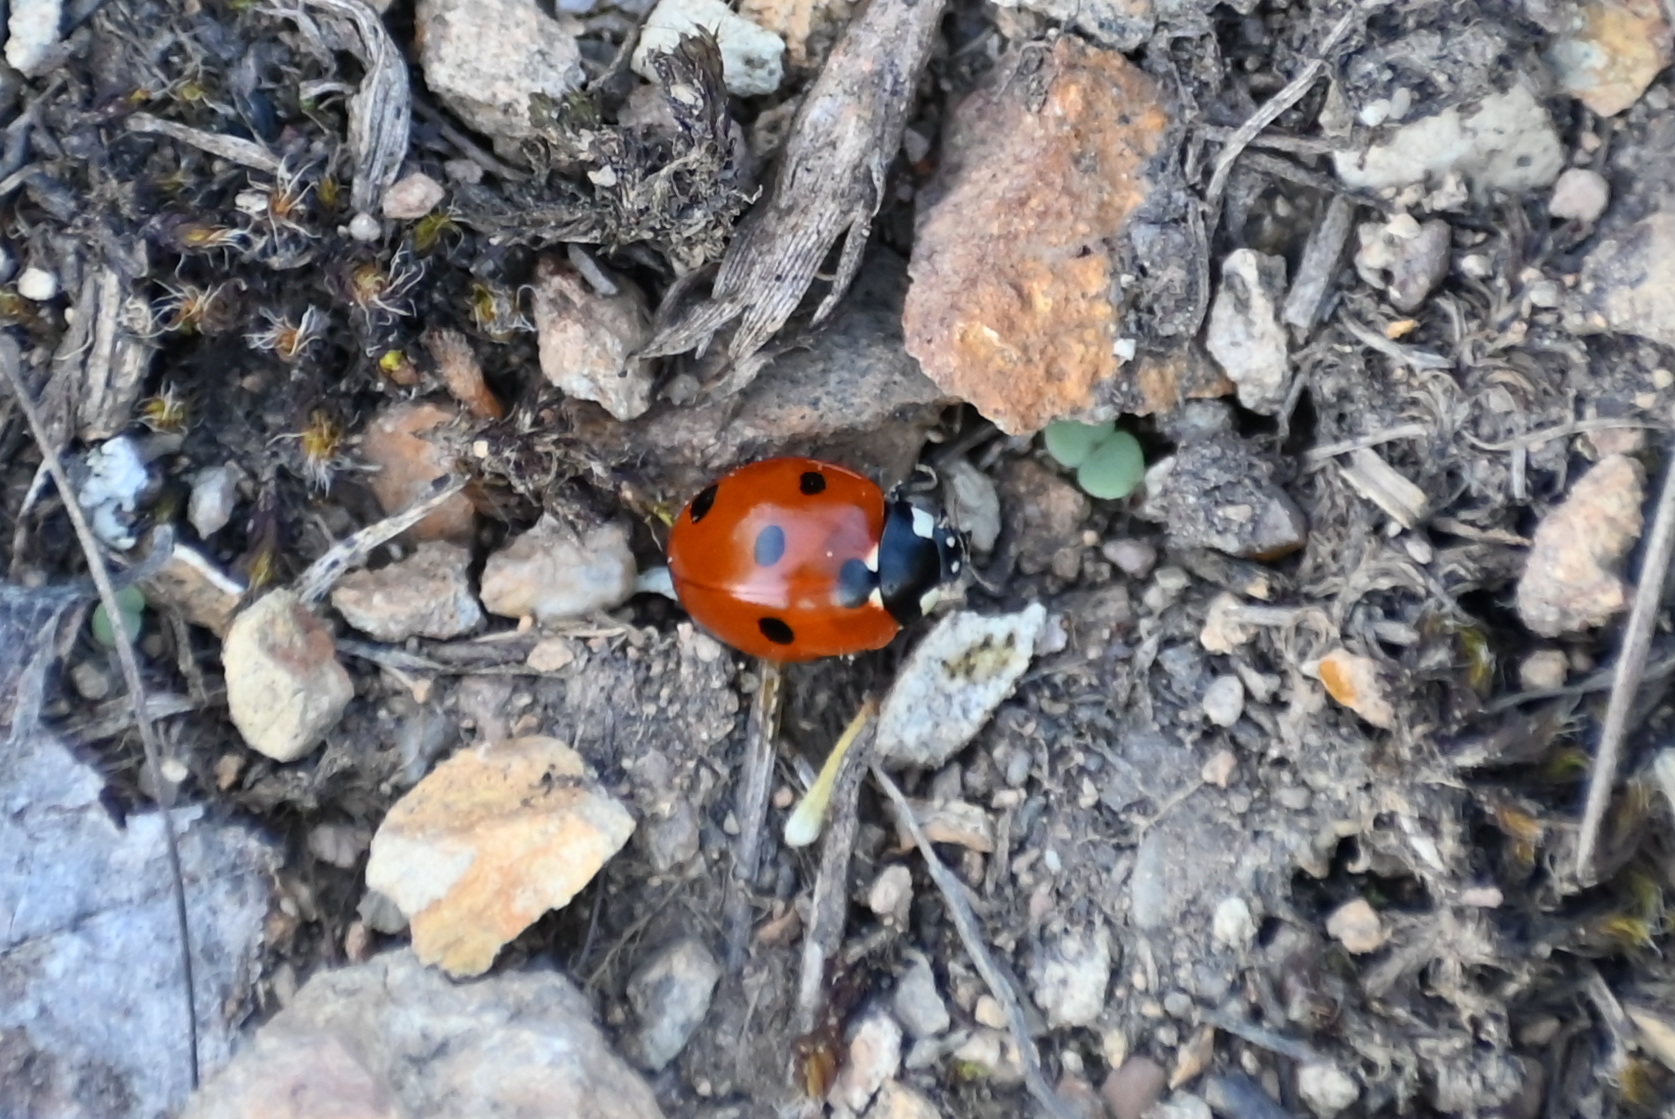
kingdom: Animalia
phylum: Arthropoda
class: Insecta
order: Coleoptera
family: Coccinellidae
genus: Coccinella
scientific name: Coccinella septempunctata
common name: Sevenspotted lady beetle
